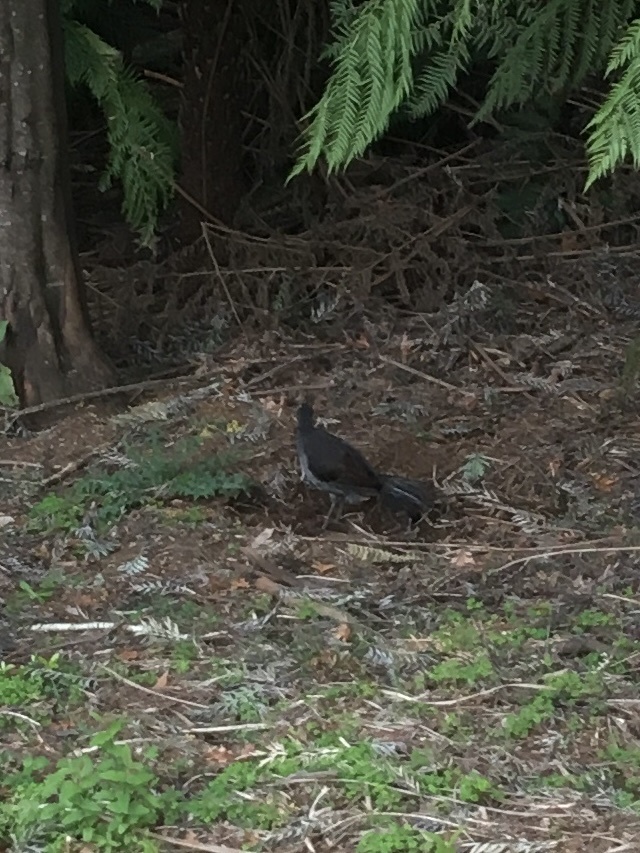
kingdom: Animalia
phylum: Chordata
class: Aves
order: Passeriformes
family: Menuridae
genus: Menura
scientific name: Menura novaehollandiae
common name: Superb lyrebird
